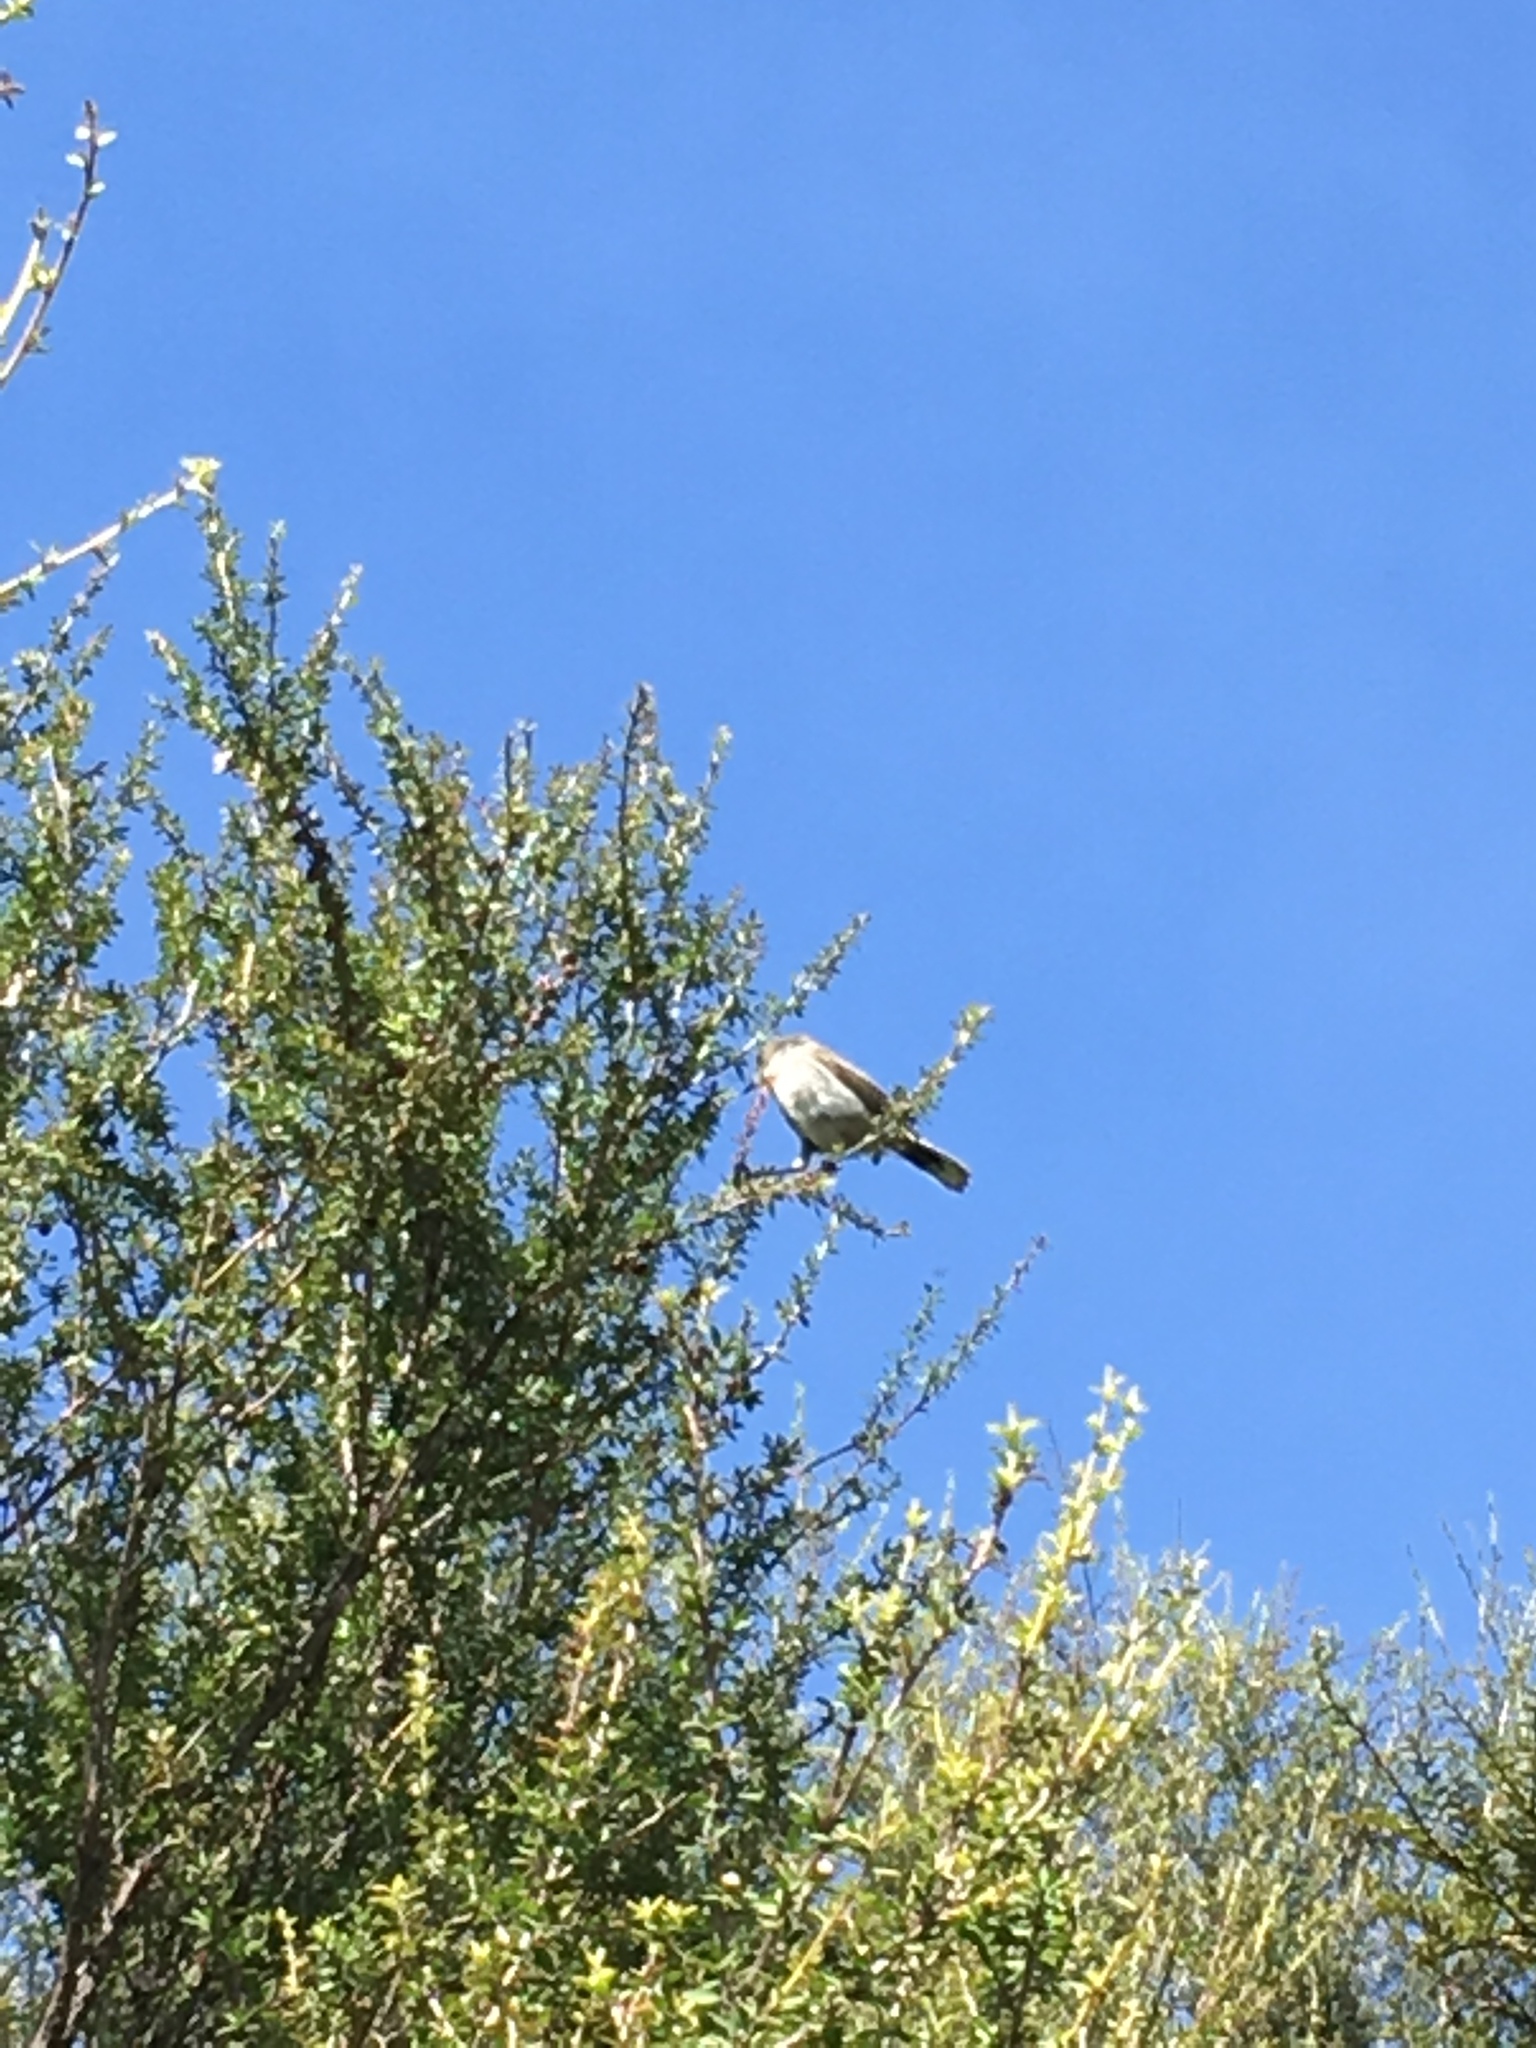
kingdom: Animalia
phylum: Chordata
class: Aves
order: Passeriformes
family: Acanthizidae
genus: Gerygone
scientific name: Gerygone igata
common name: Grey gerygone
